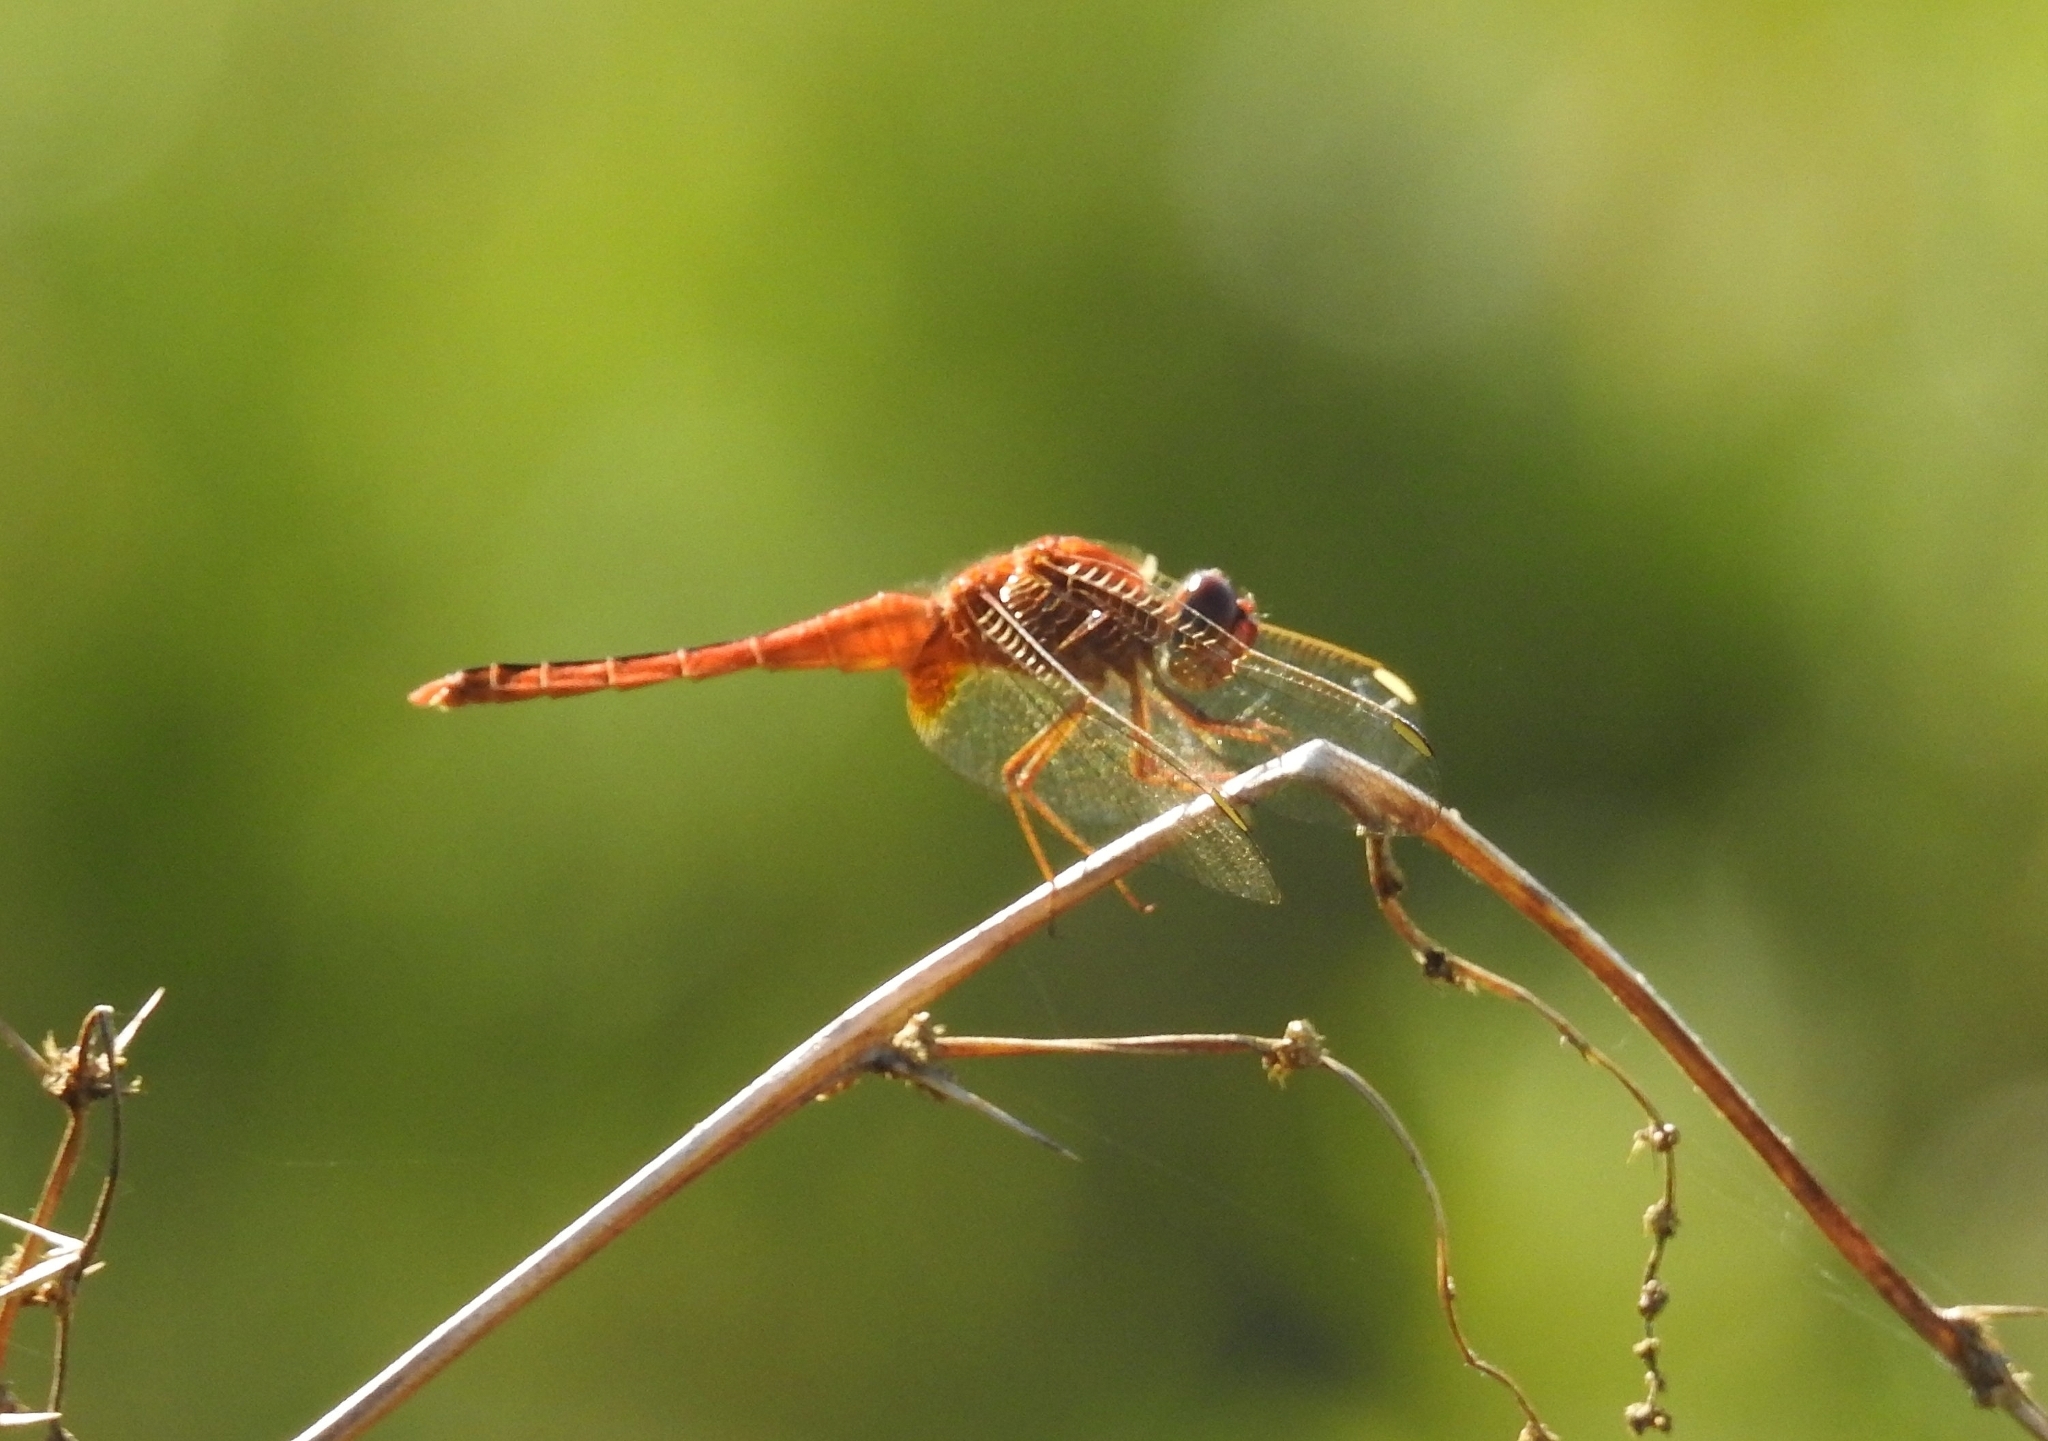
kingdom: Animalia
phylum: Arthropoda
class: Insecta
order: Odonata
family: Libellulidae
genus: Crocothemis
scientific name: Crocothemis servilia
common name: Scarlet skimmer
